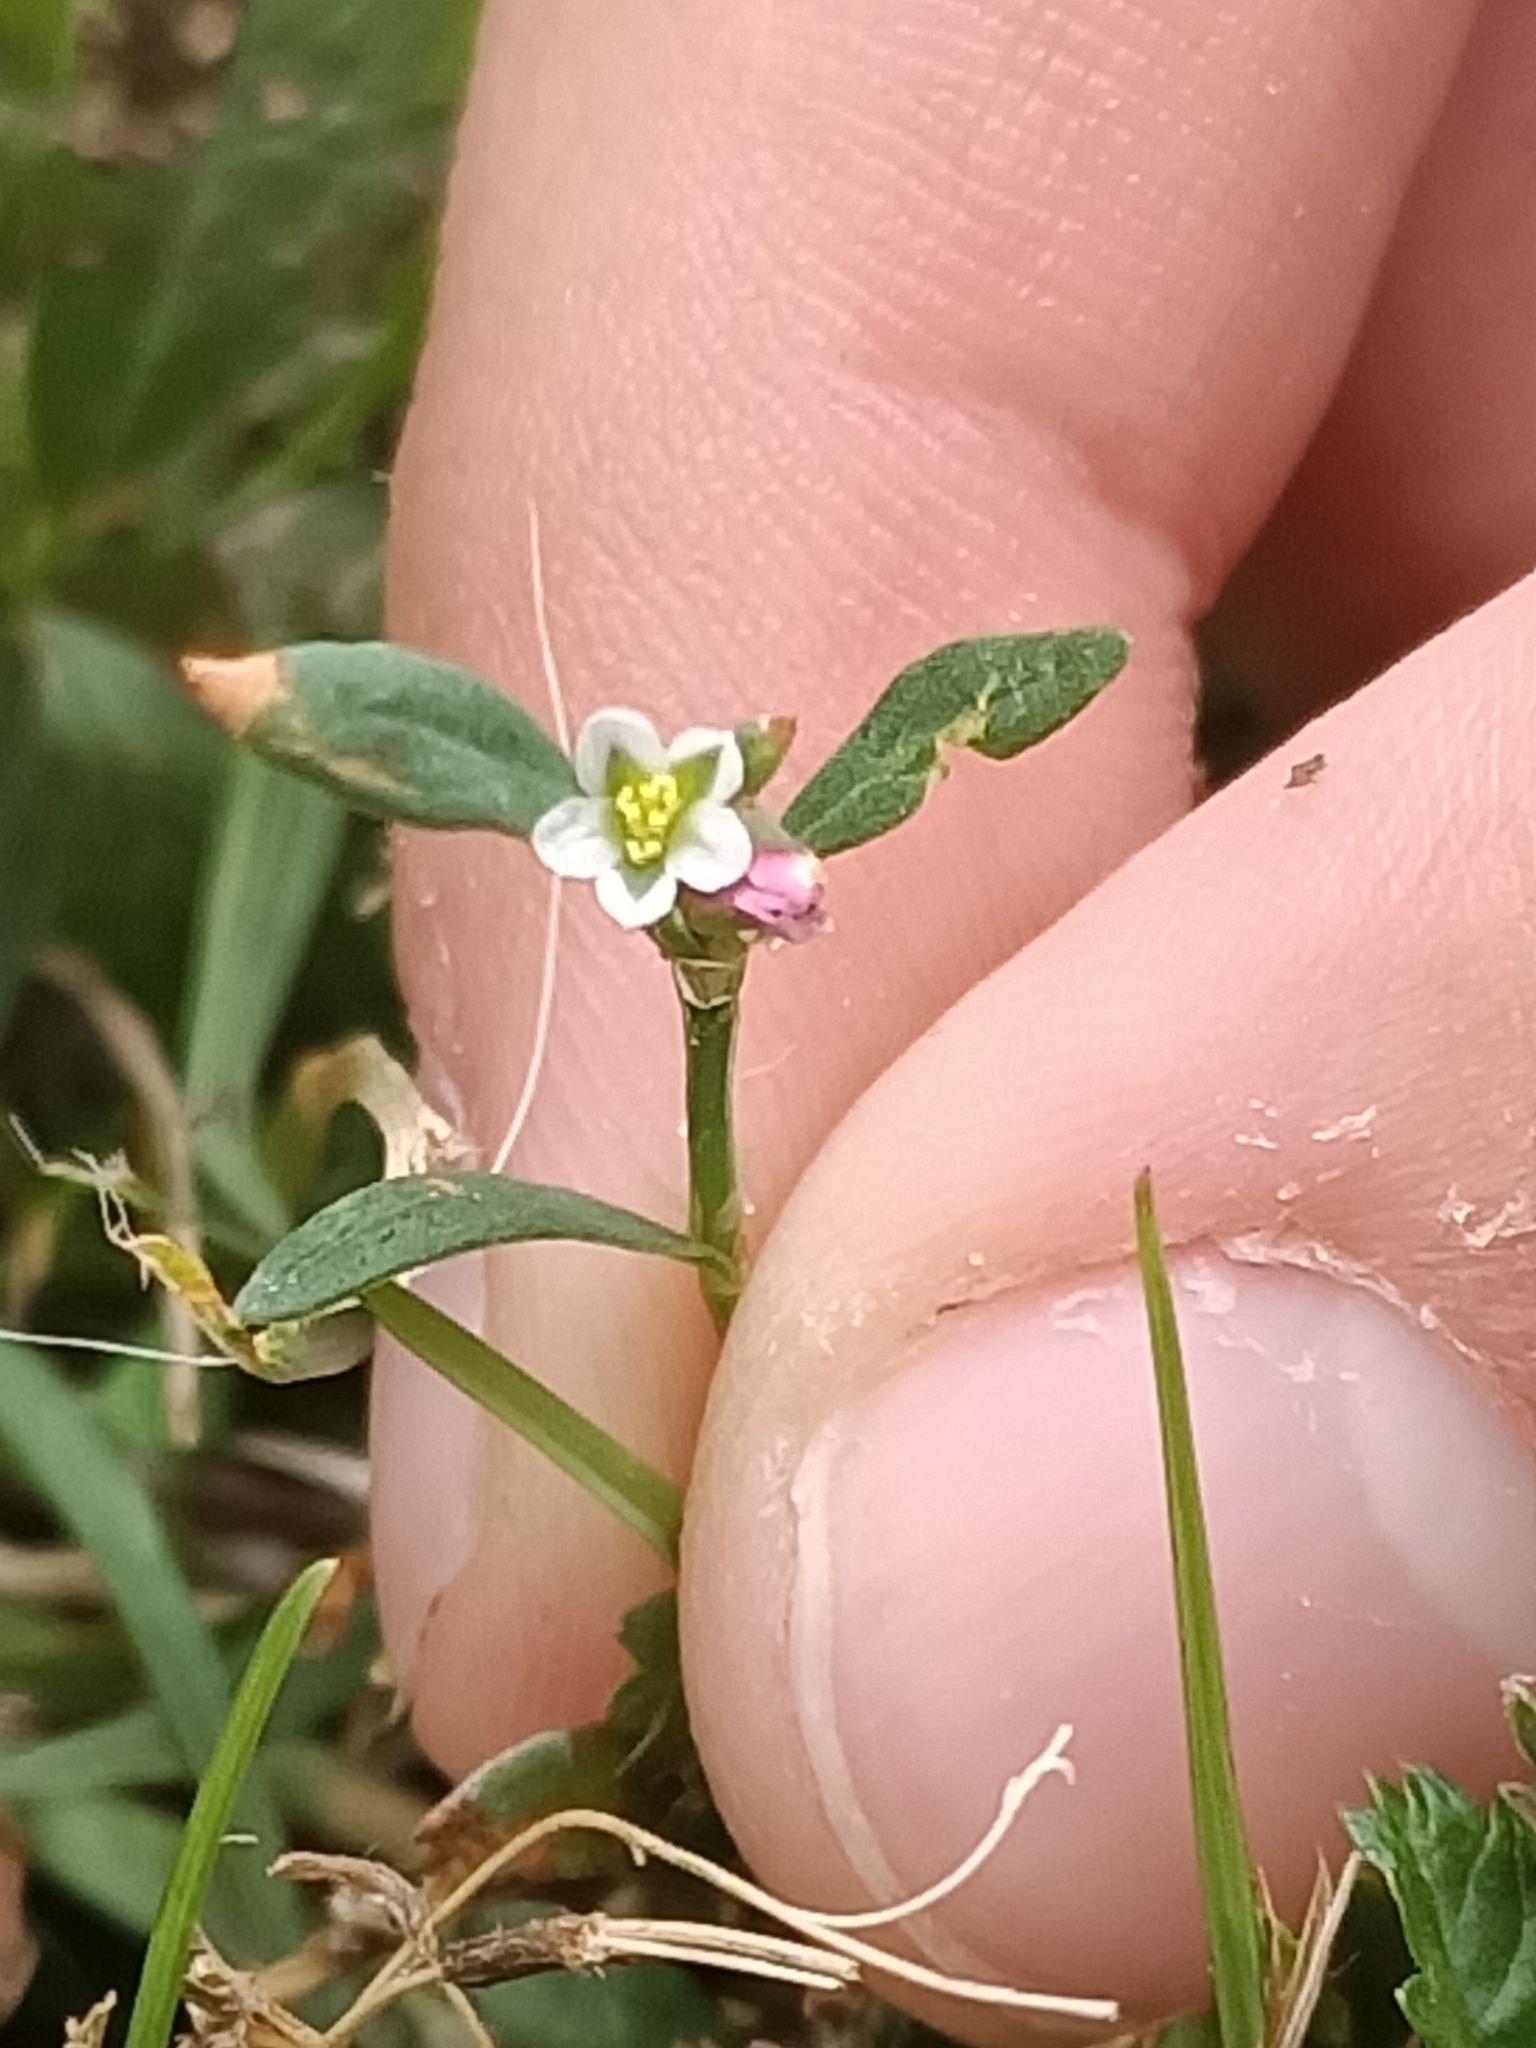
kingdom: Plantae
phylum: Tracheophyta
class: Magnoliopsida
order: Caryophyllales
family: Polygonaceae
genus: Polygonum
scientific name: Polygonum aviculare
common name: Prostrate knotweed
